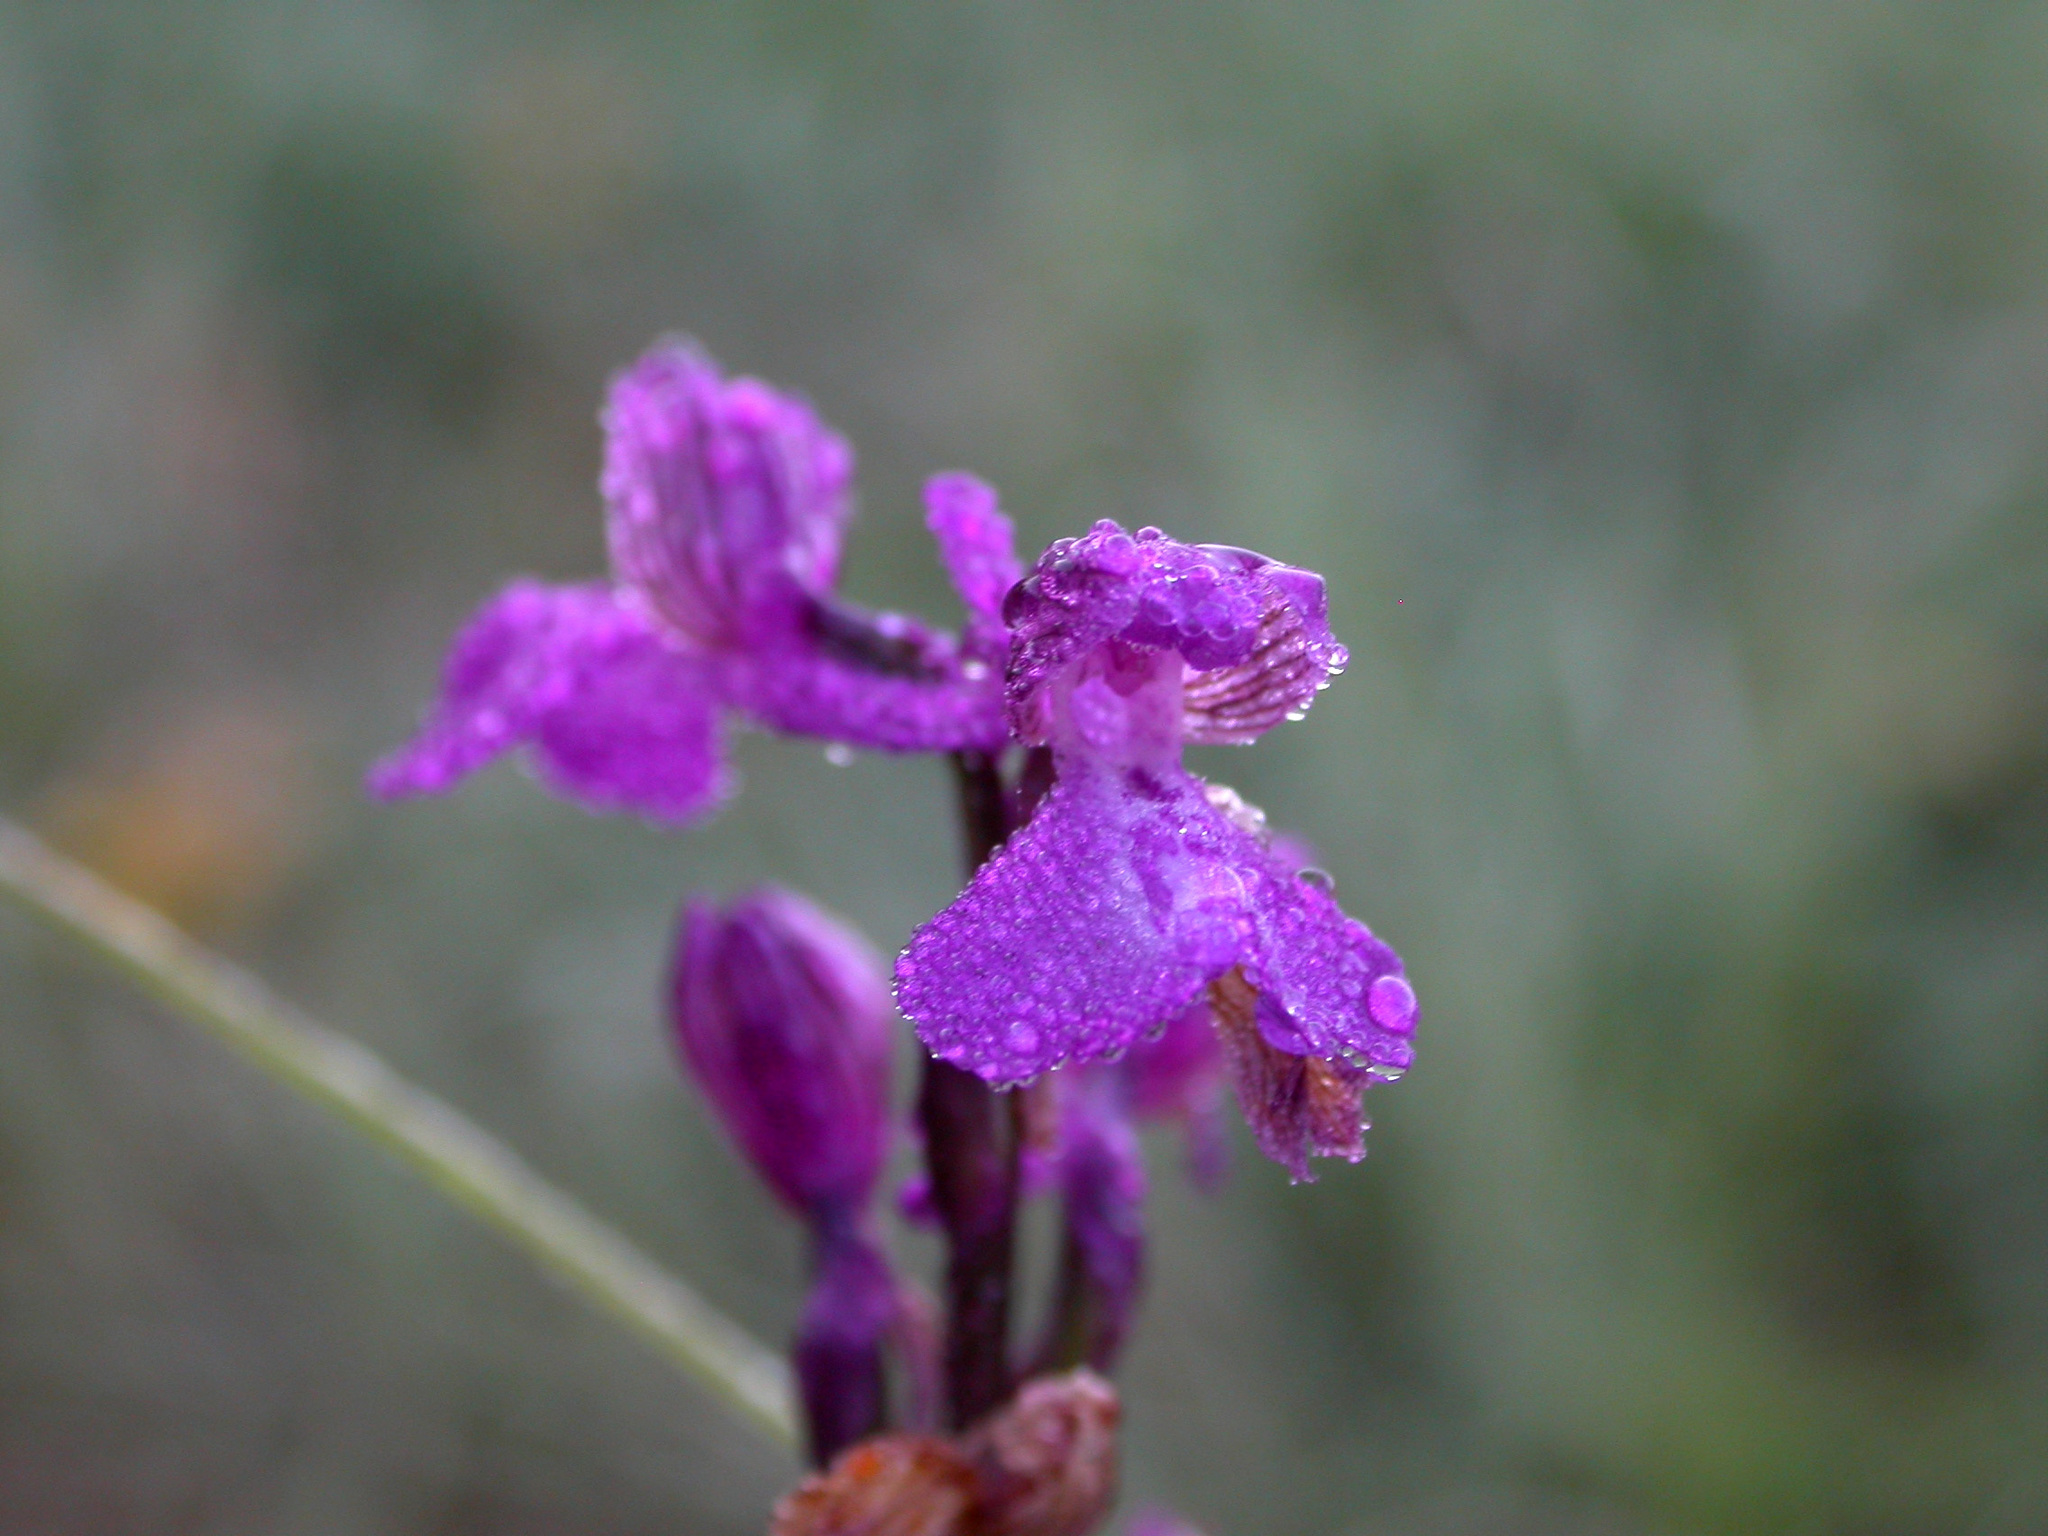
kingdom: Plantae
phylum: Tracheophyta
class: Liliopsida
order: Asparagales
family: Orchidaceae
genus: Anacamptis
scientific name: Anacamptis morio
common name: Green-winged orchid
